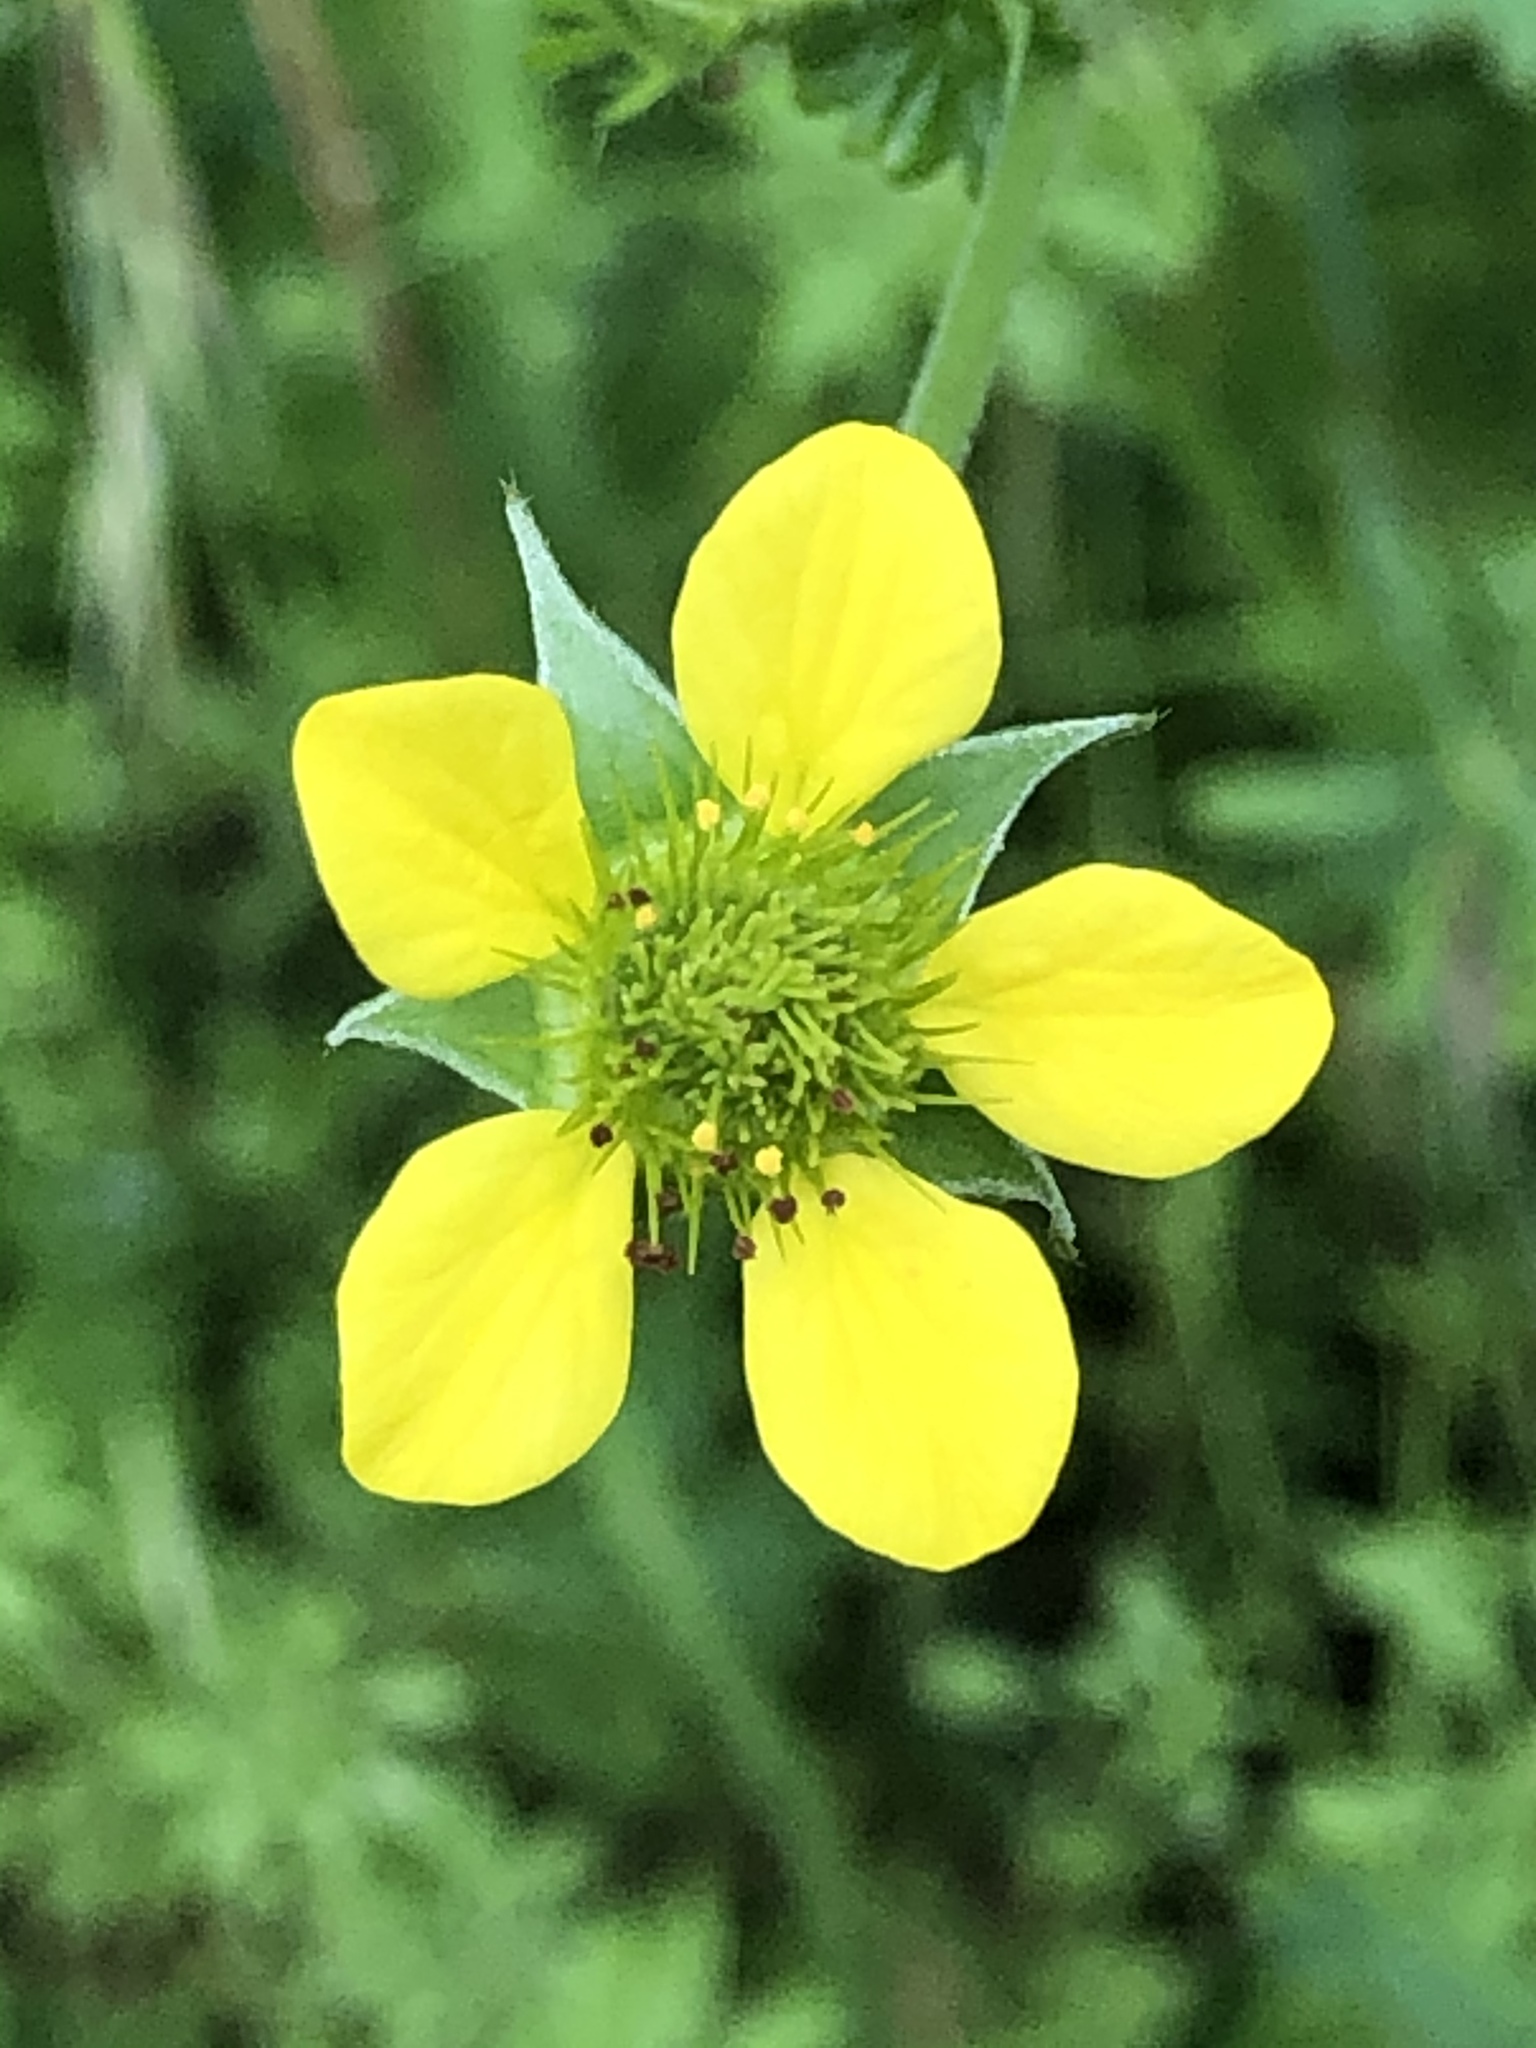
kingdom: Plantae
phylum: Tracheophyta
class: Magnoliopsida
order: Rosales
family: Rosaceae
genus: Geum
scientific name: Geum urbanum
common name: Wood avens
